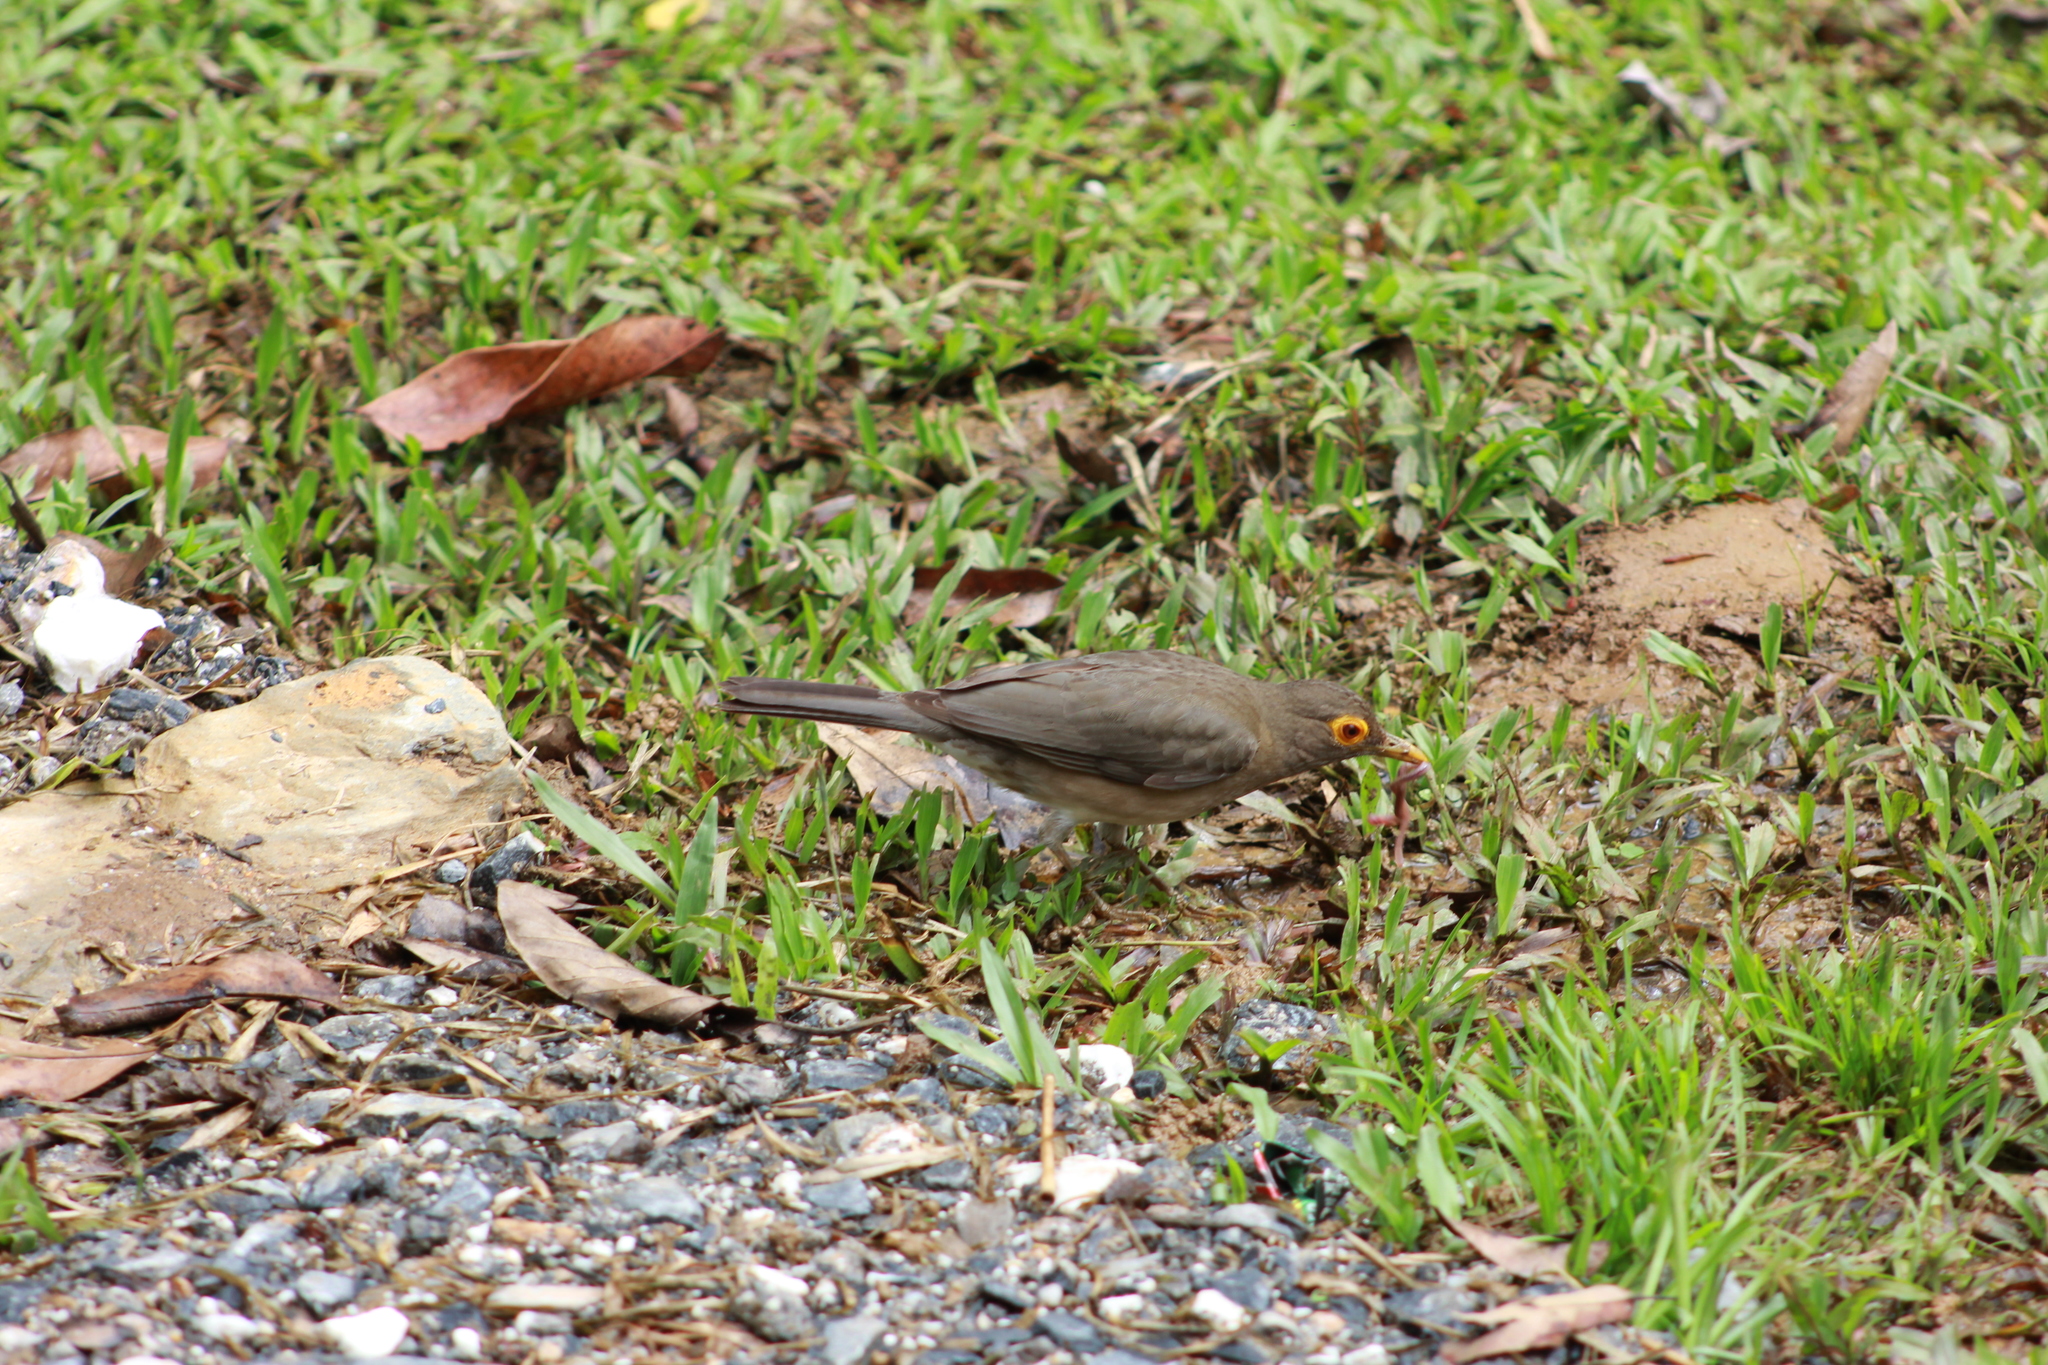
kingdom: Animalia
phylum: Chordata
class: Aves
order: Passeriformes
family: Turdidae
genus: Turdus
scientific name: Turdus nudigenis
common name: Spectacled thrush
